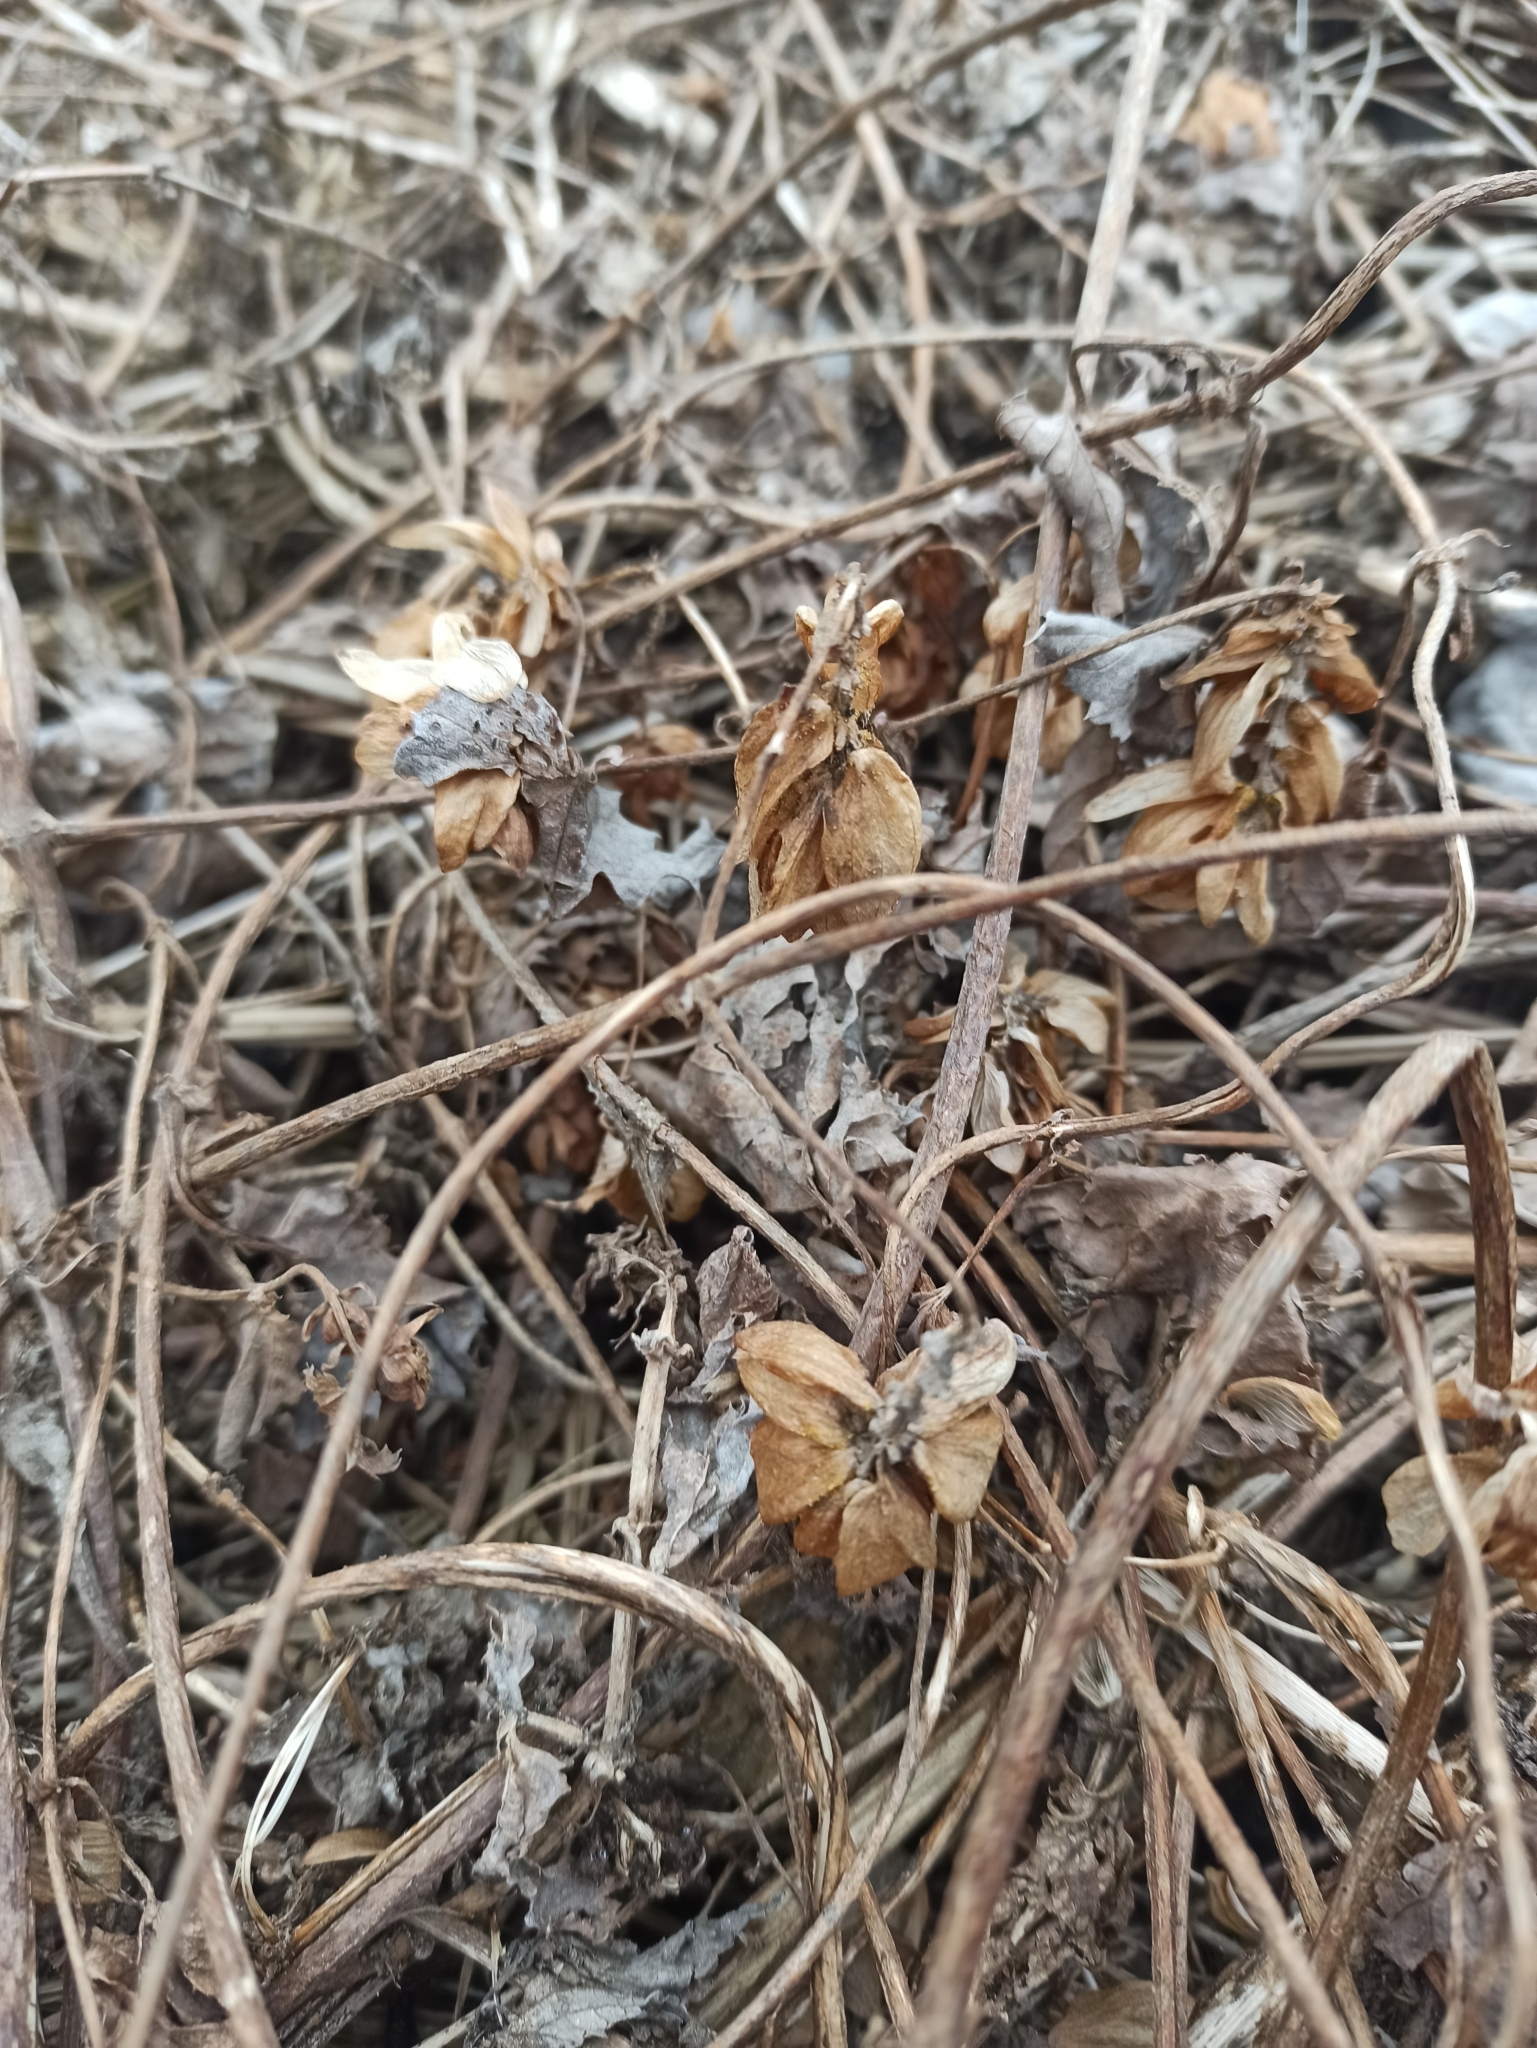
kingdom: Plantae
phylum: Tracheophyta
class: Magnoliopsida
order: Rosales
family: Cannabaceae
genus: Humulus
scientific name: Humulus lupulus
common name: Hop
